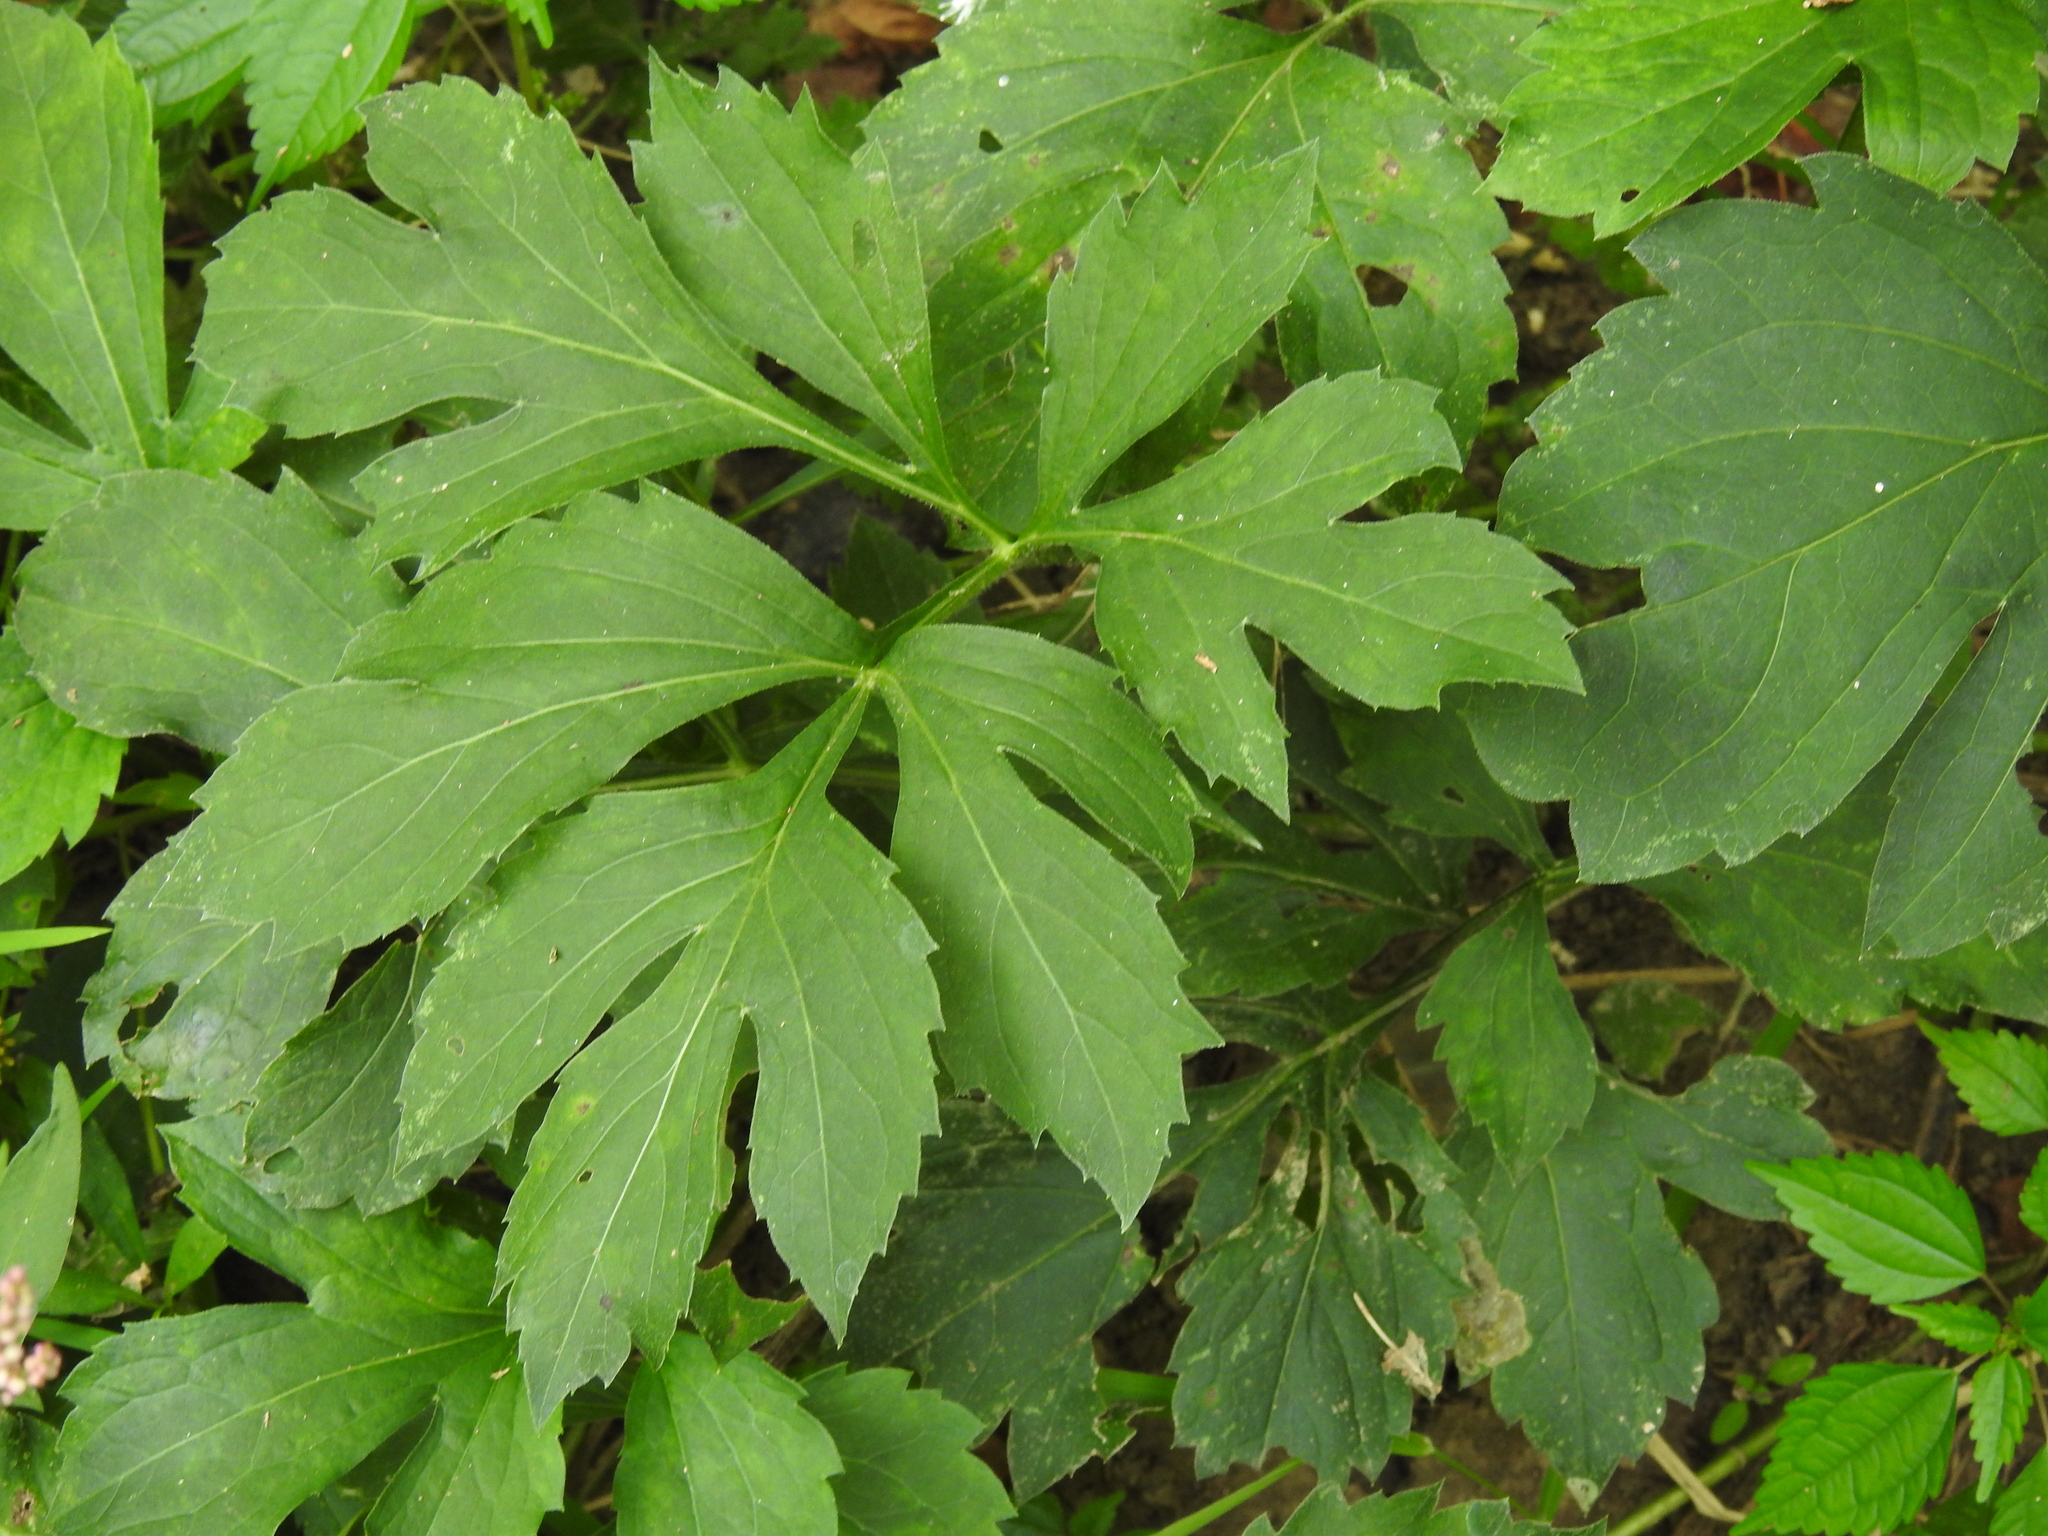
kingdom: Plantae
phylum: Tracheophyta
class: Magnoliopsida
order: Asterales
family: Asteraceae
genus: Rudbeckia
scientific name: Rudbeckia laciniata
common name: Coneflower
